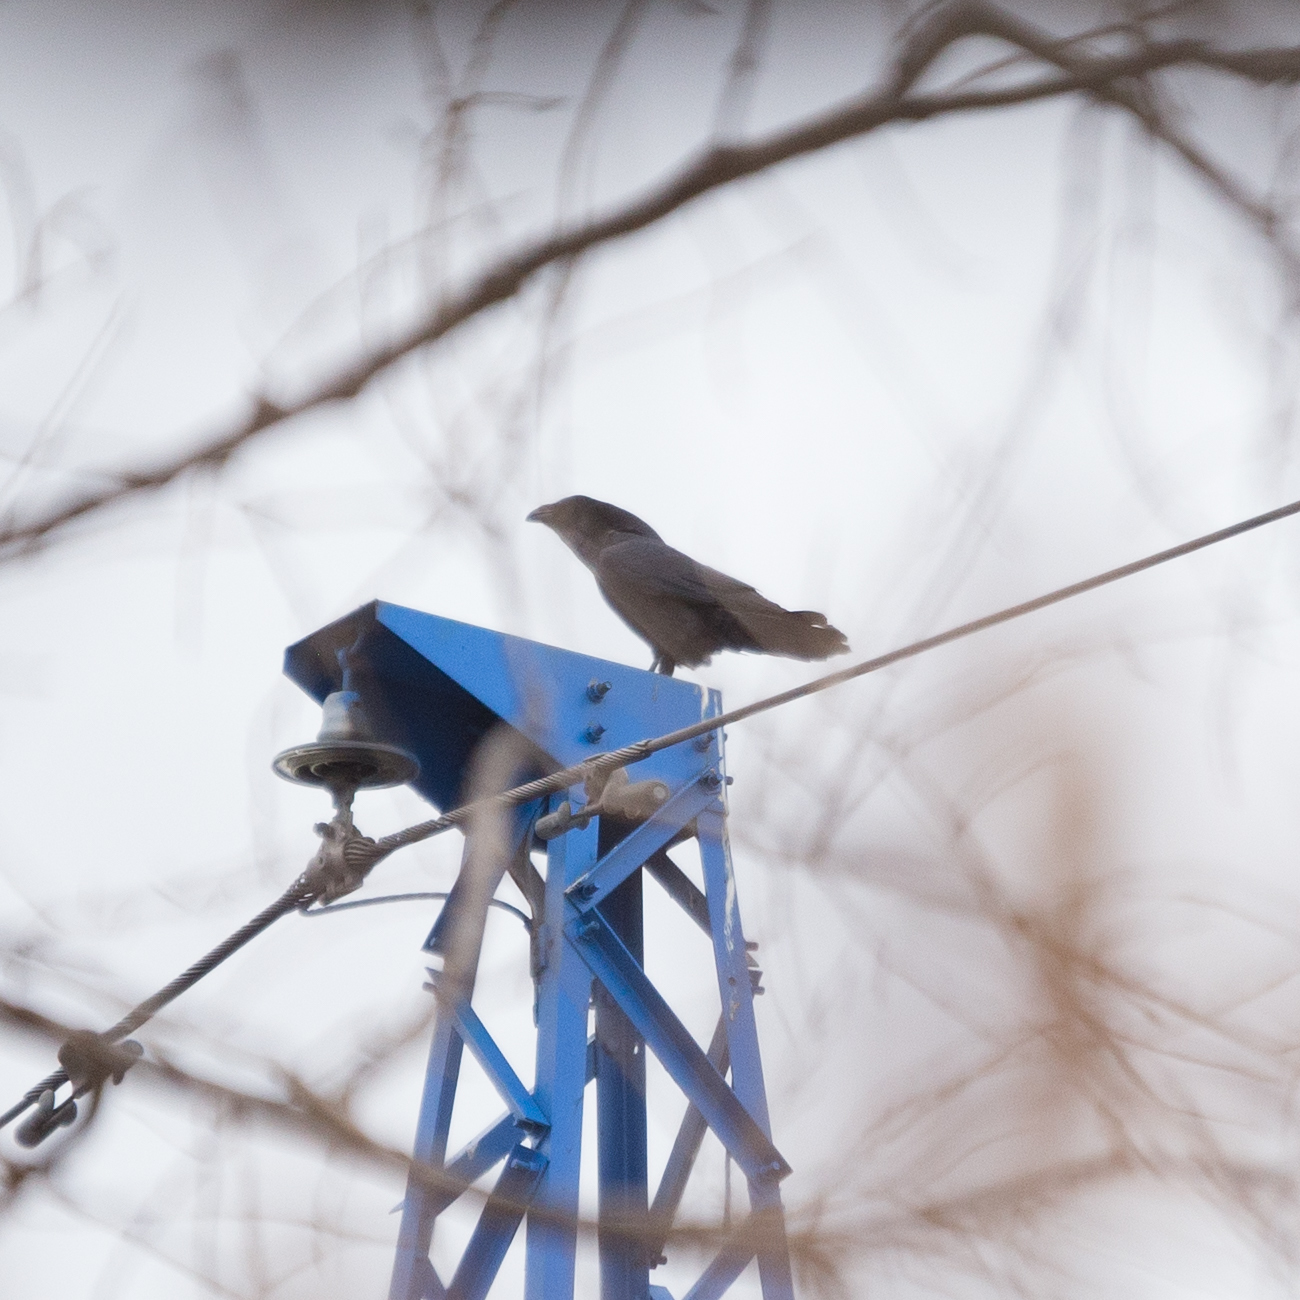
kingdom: Animalia
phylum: Chordata
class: Aves
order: Passeriformes
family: Corvidae
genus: Corvus
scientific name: Corvus corax
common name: Common raven
